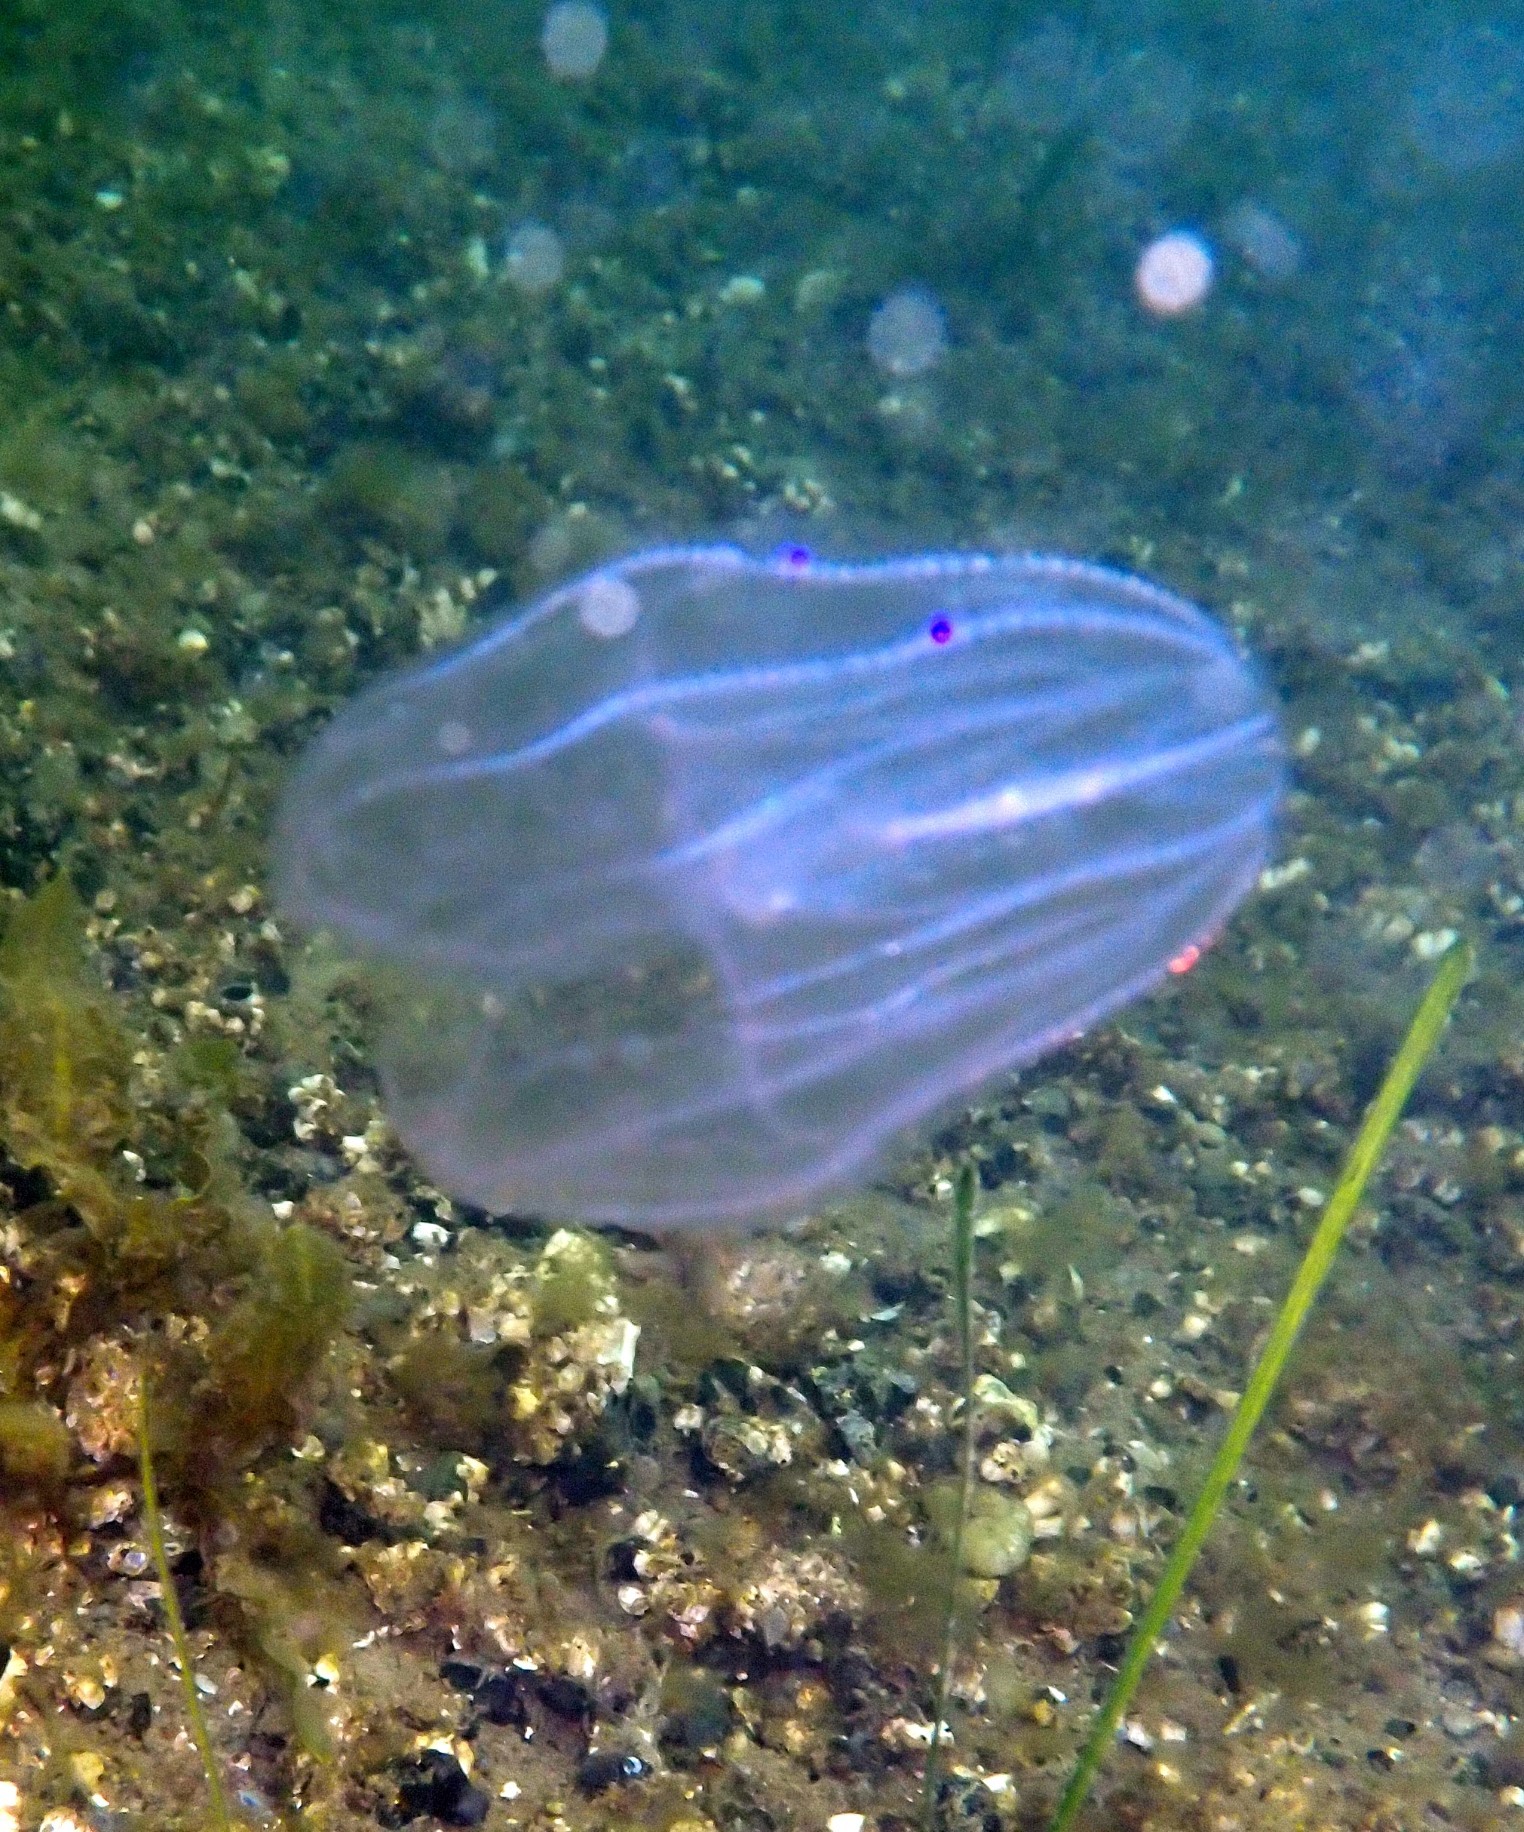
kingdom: Animalia
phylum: Ctenophora
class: Tentaculata
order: Lobata
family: Bolinopsidae
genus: Mnemiopsis
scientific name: Mnemiopsis leidyi
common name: American comb jelly
